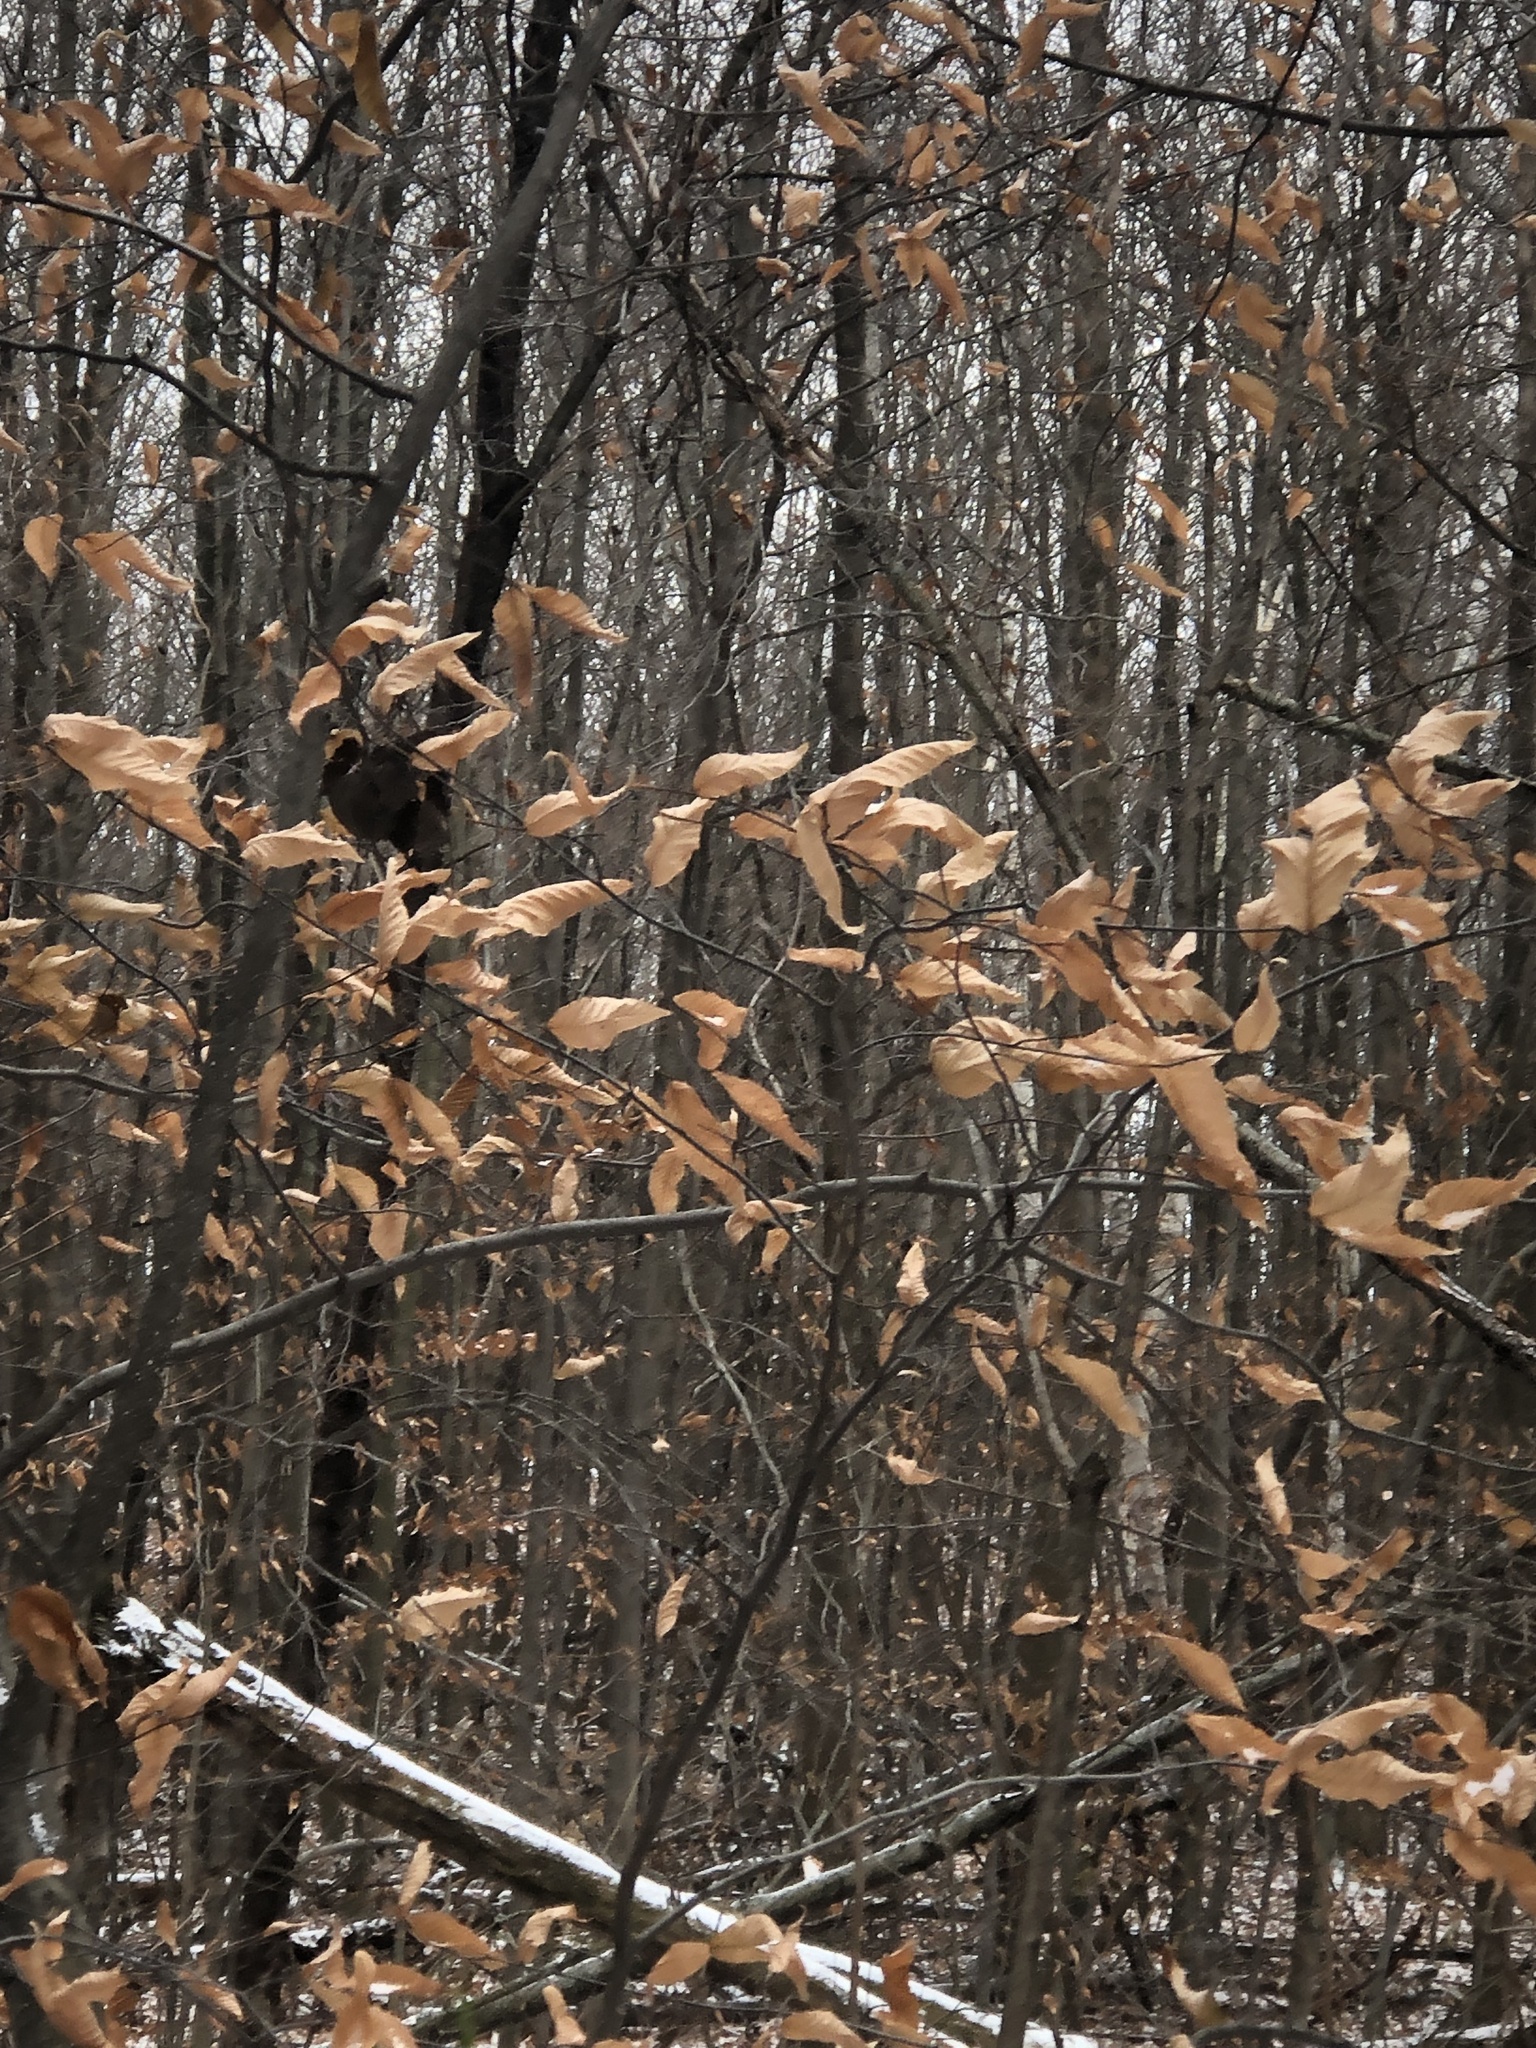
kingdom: Plantae
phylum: Tracheophyta
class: Magnoliopsida
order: Fagales
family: Fagaceae
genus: Fagus
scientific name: Fagus grandifolia
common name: American beech
